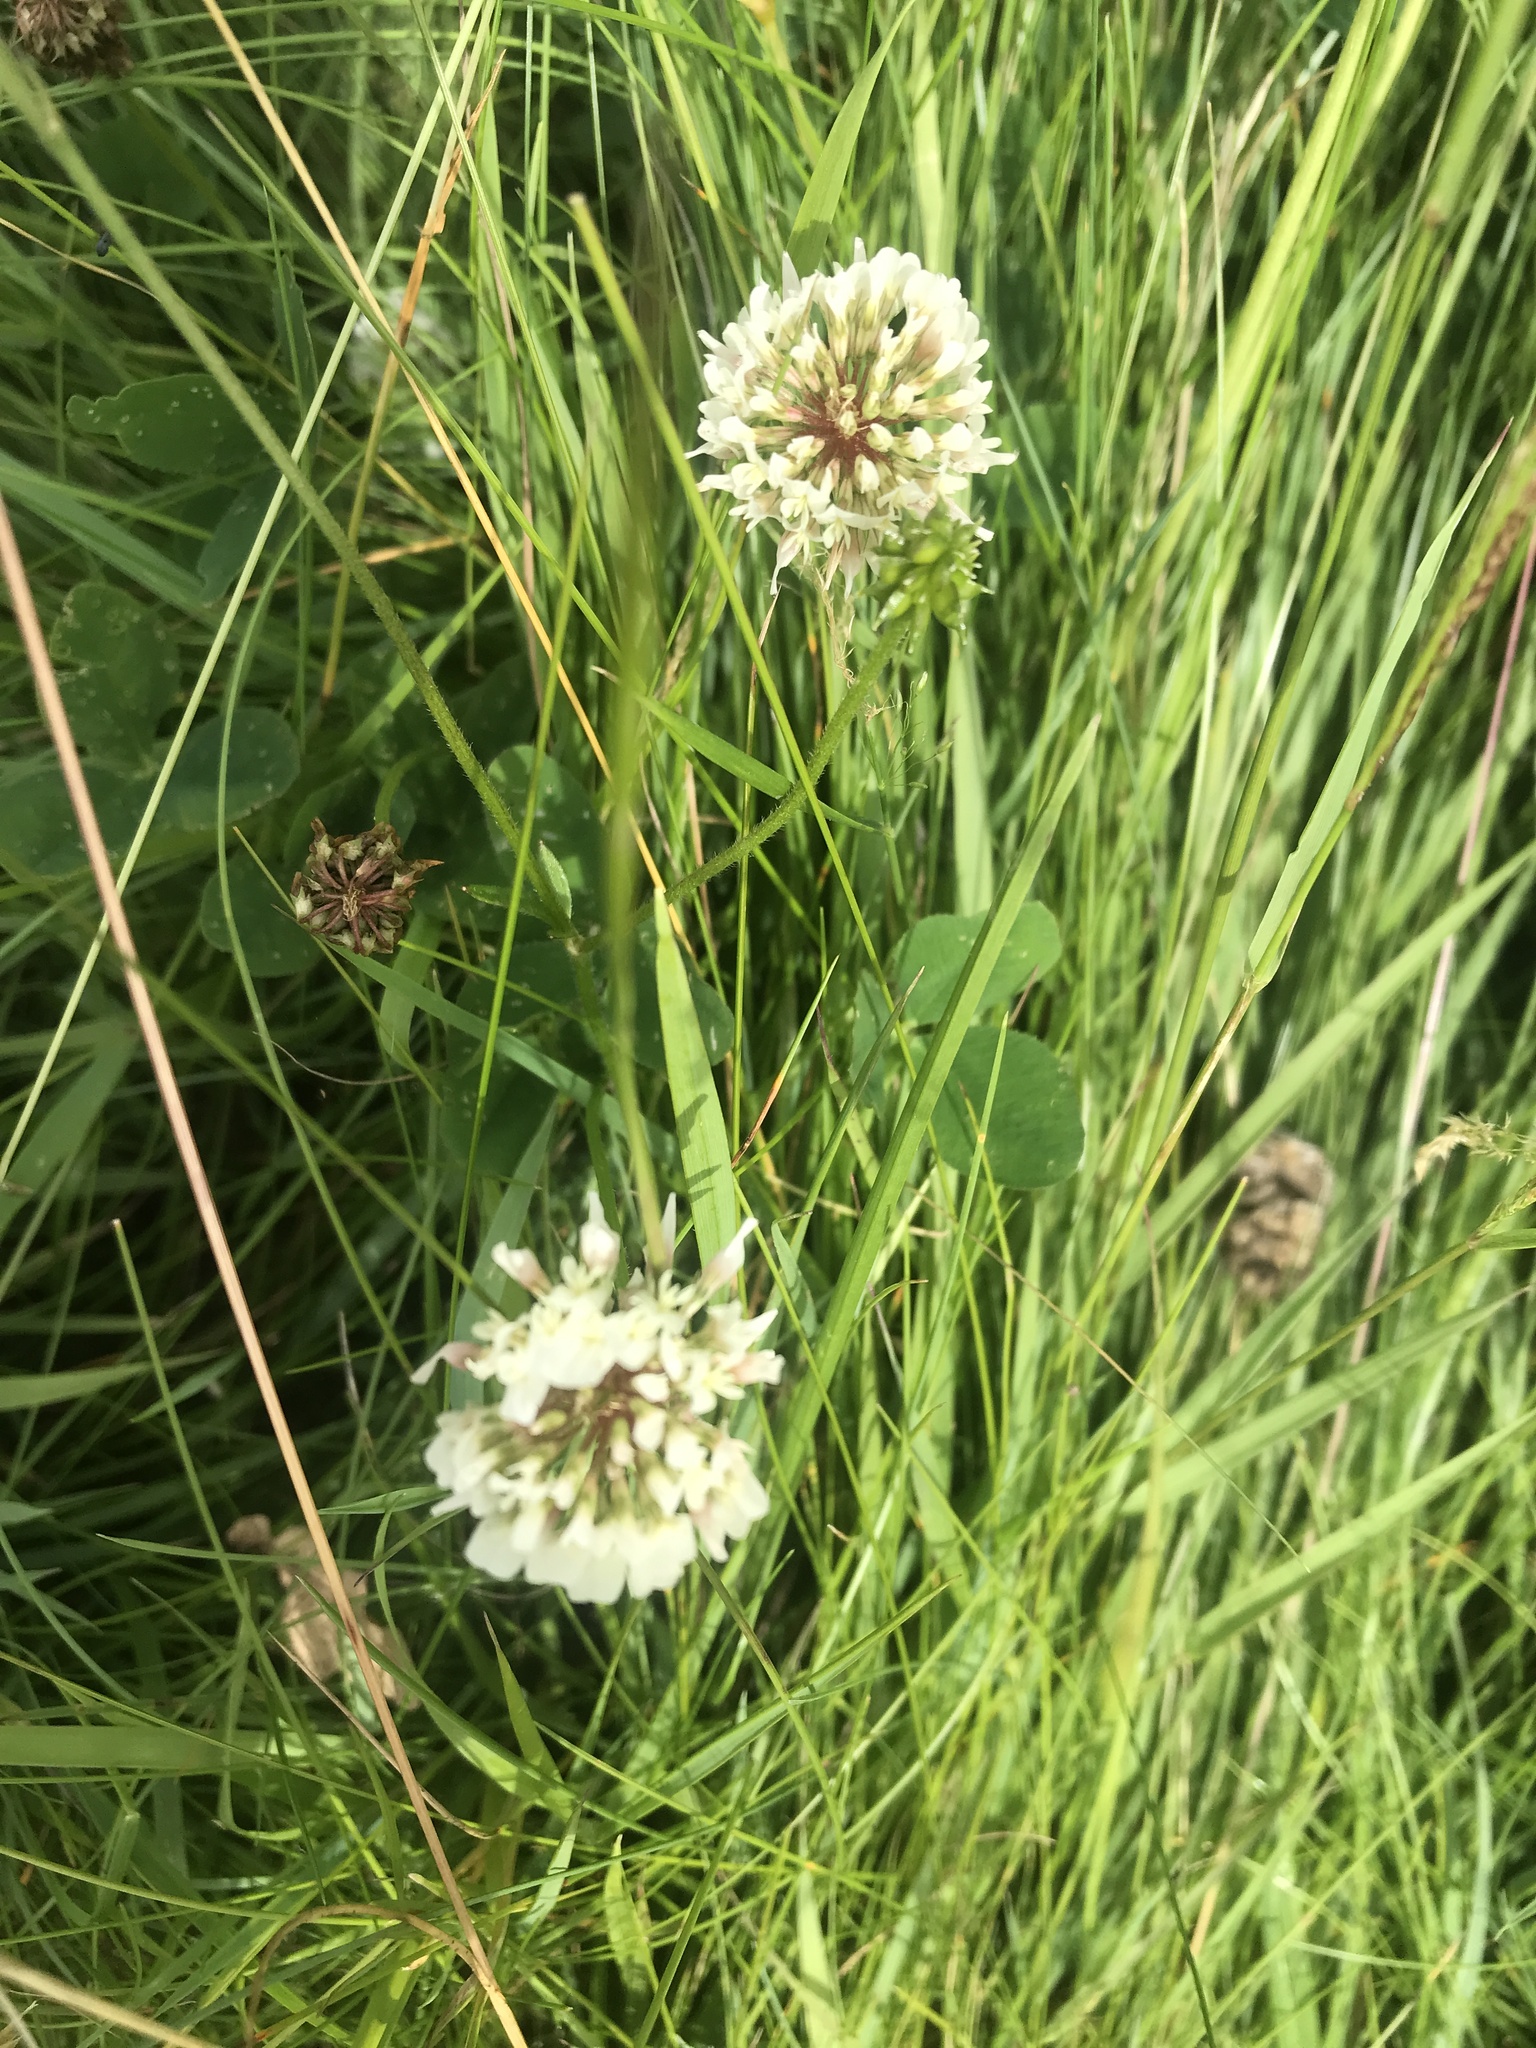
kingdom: Plantae
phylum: Tracheophyta
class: Magnoliopsida
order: Fabales
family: Fabaceae
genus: Trifolium
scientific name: Trifolium repens
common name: White clover
